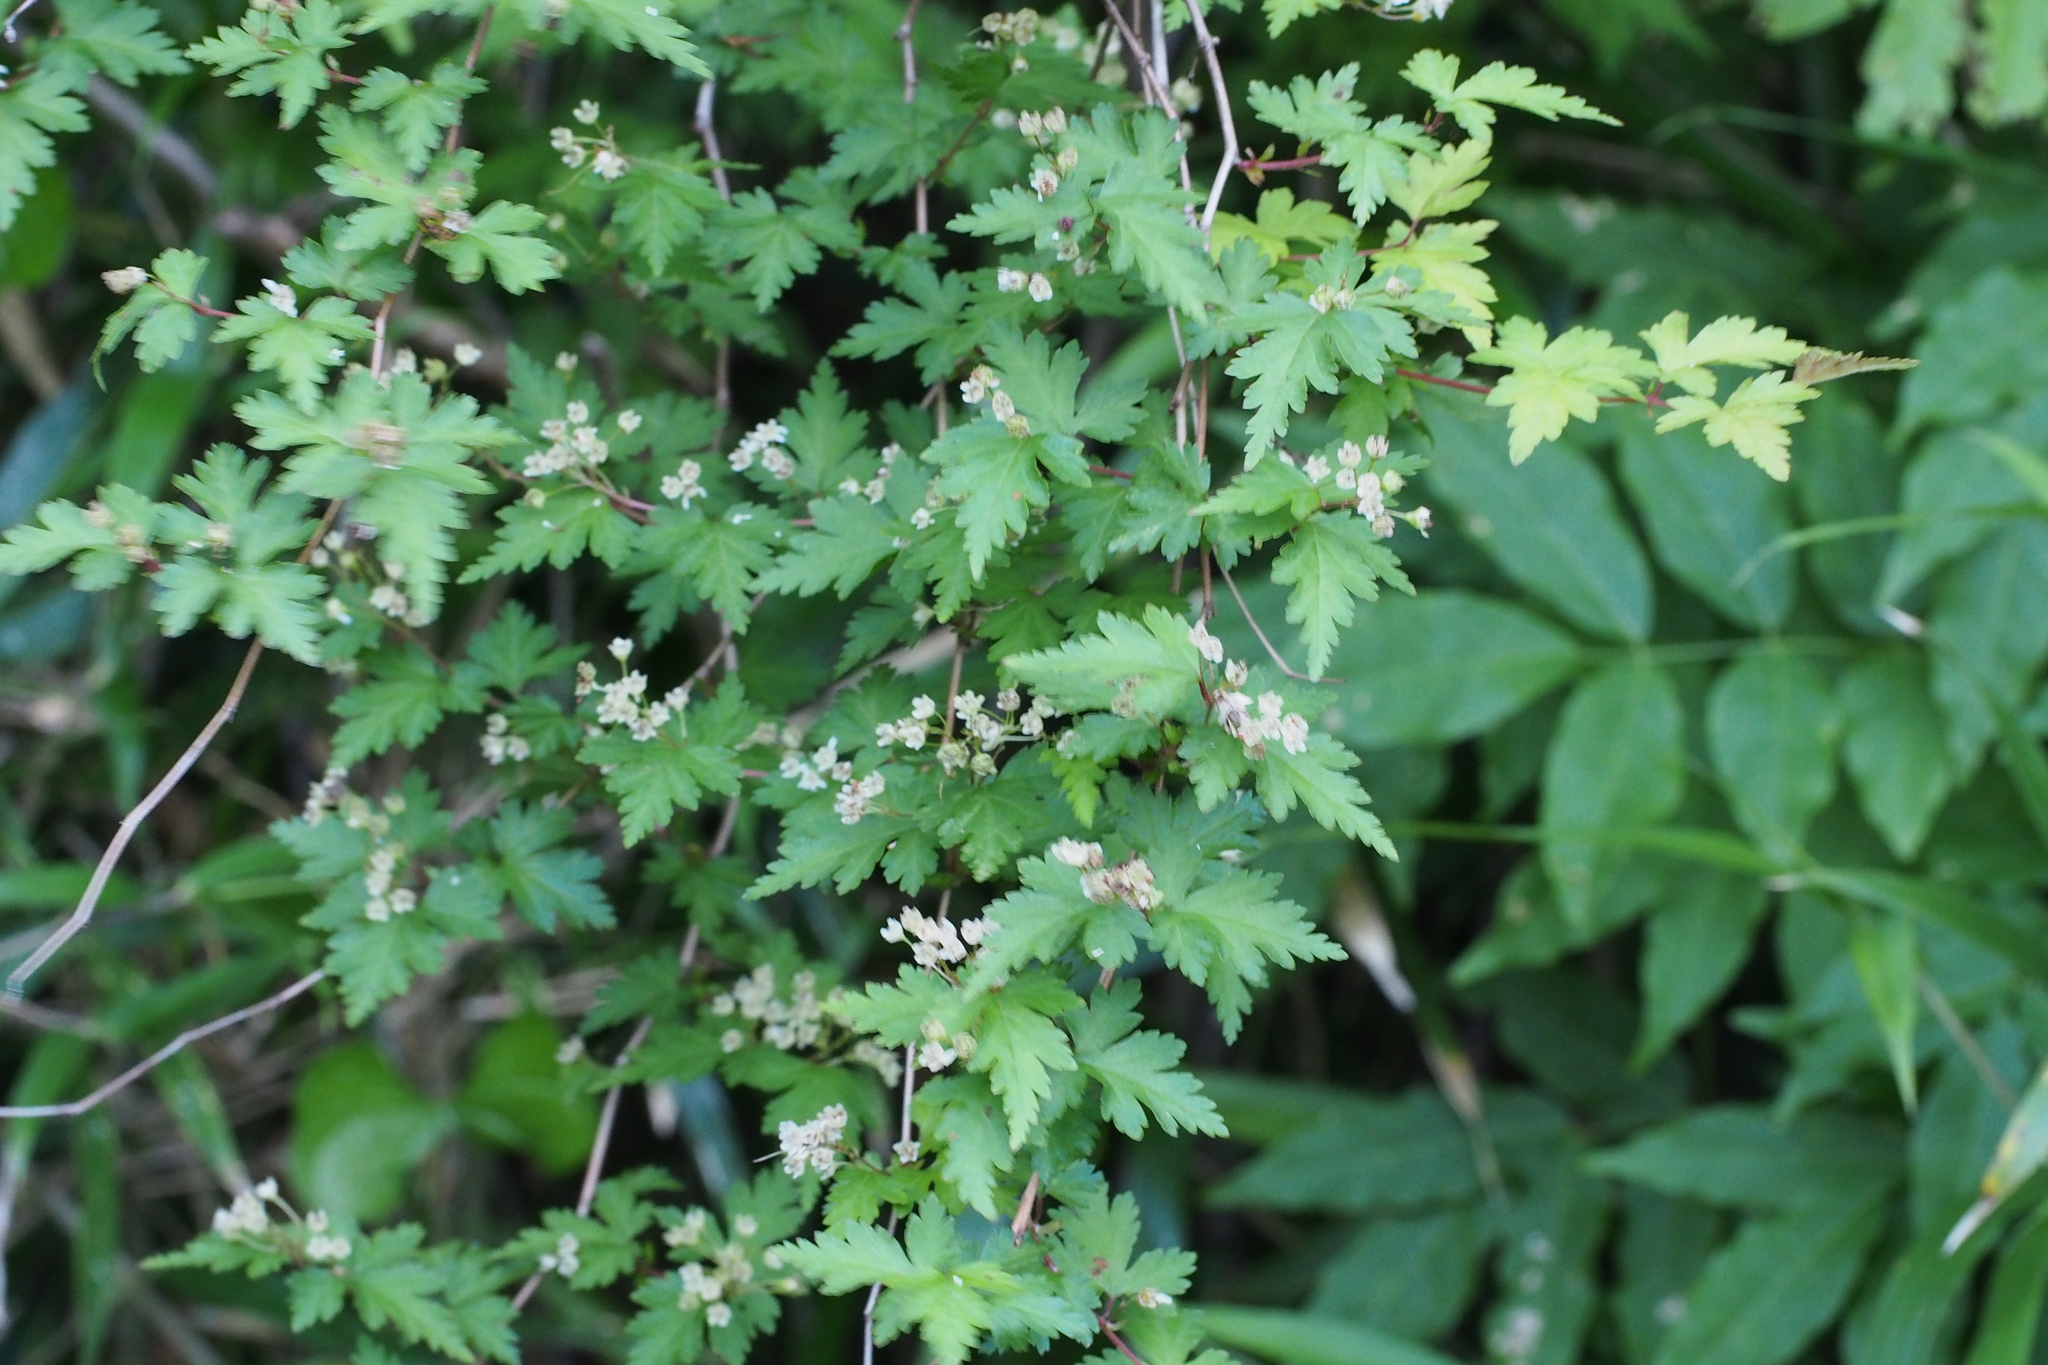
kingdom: Plantae
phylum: Tracheophyta
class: Magnoliopsida
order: Rosales
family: Rosaceae
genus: Neillia
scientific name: Neillia incisa
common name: Laceshrub
